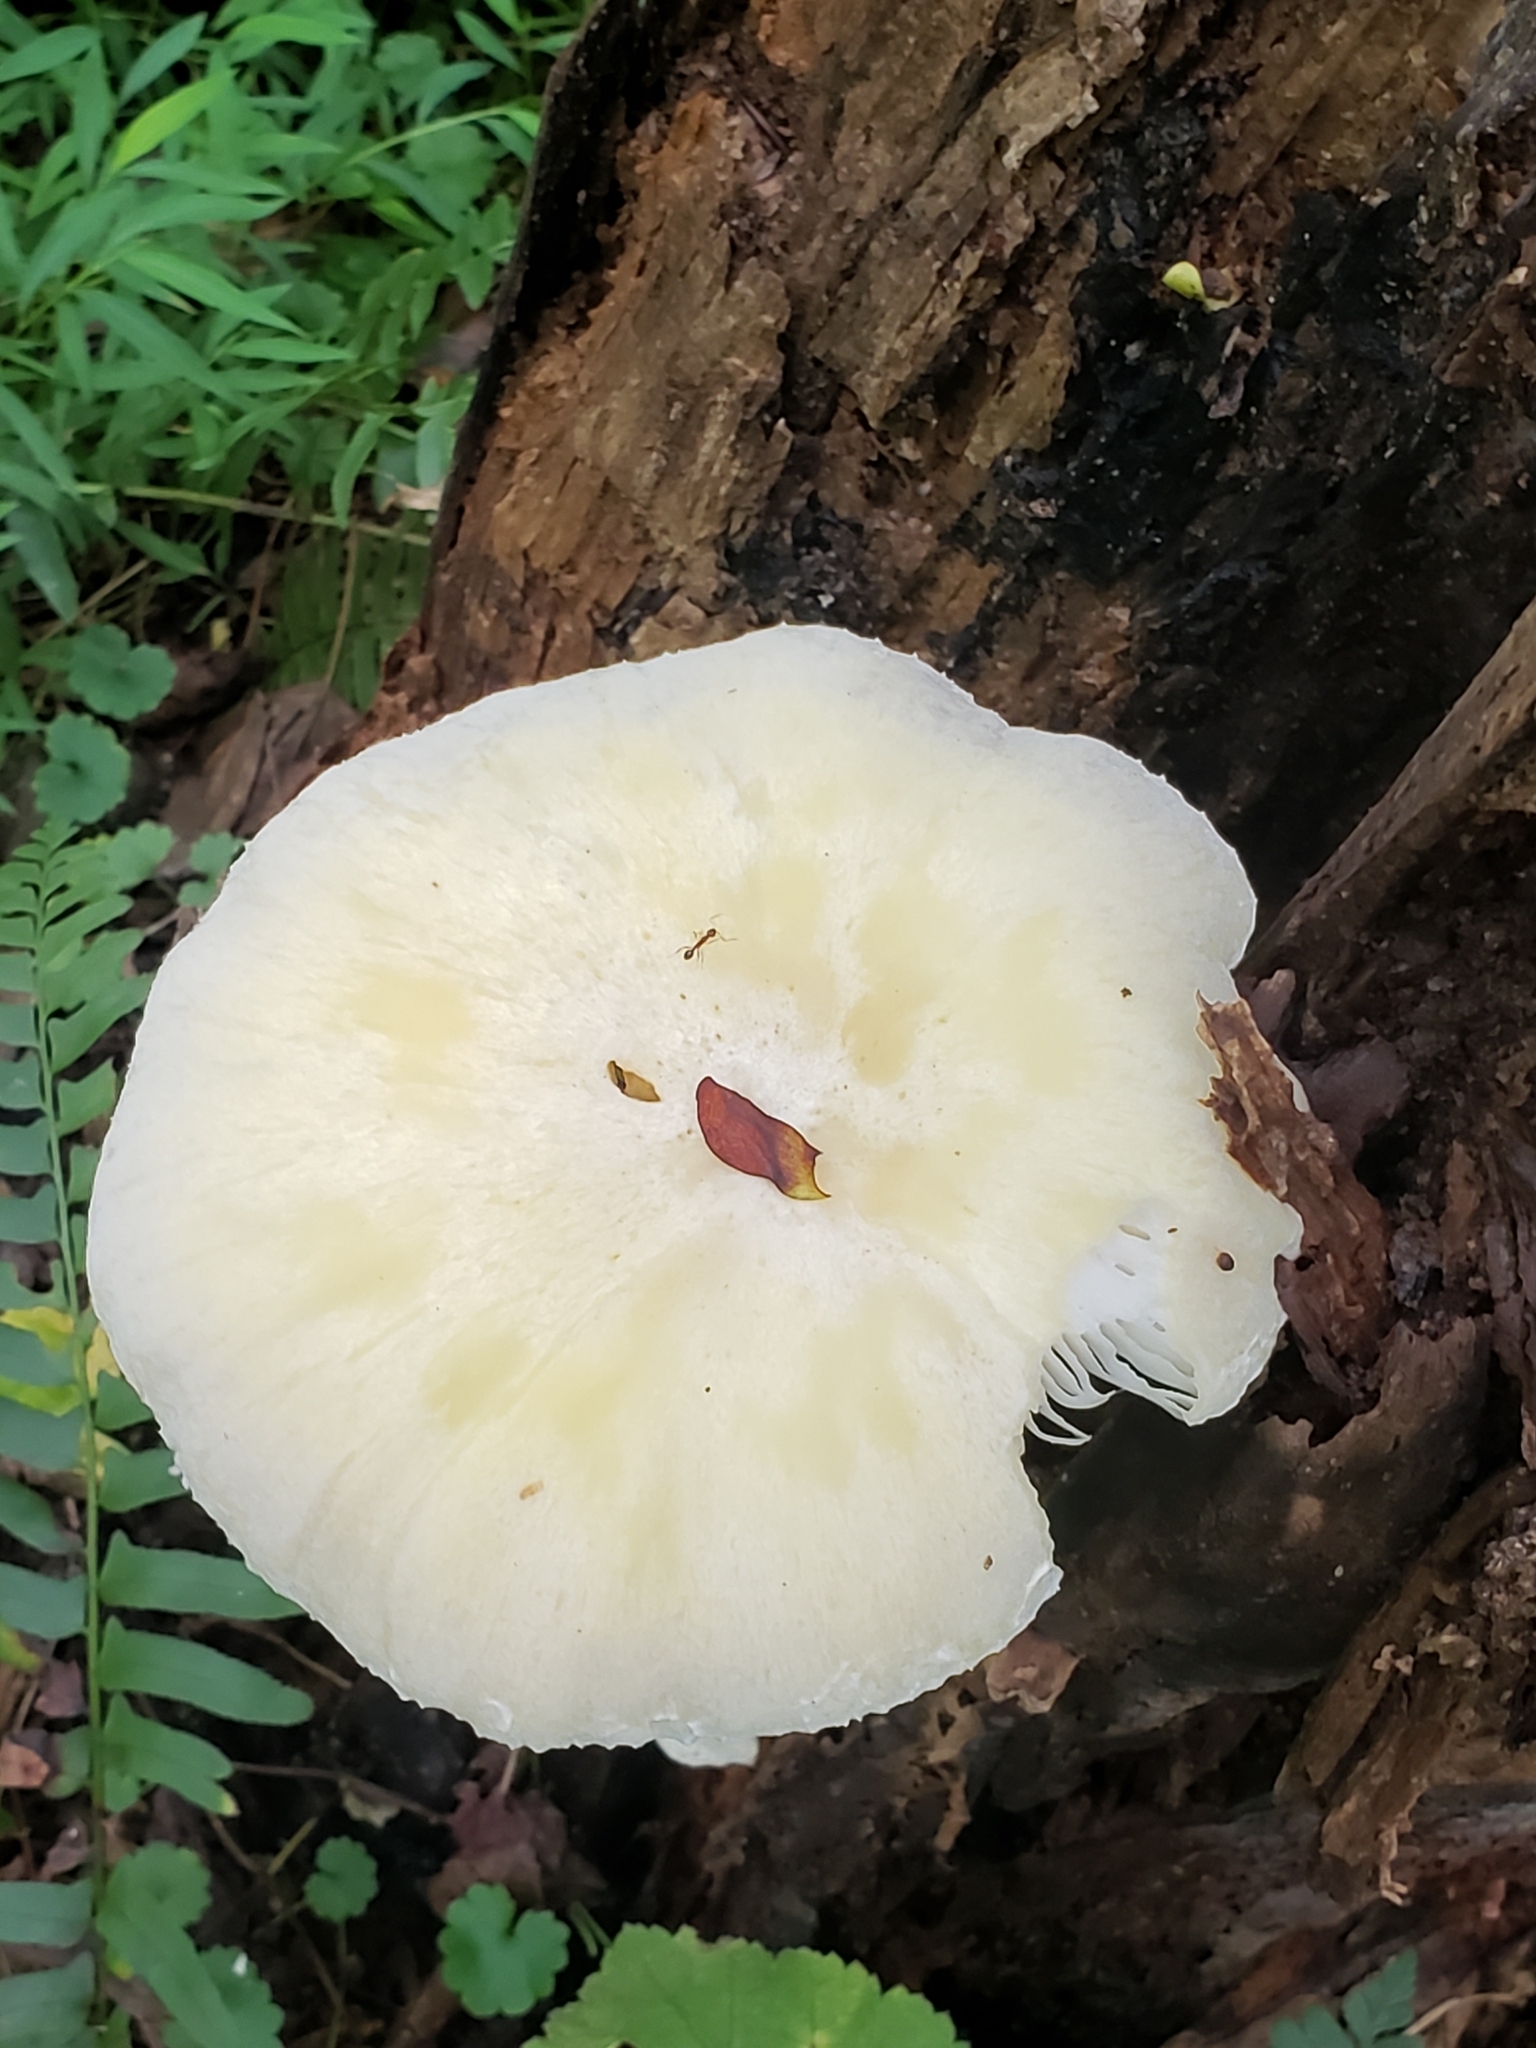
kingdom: Fungi
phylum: Basidiomycota
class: Agaricomycetes
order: Polyporales
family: Polyporaceae
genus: Lentinus
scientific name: Lentinus levis
